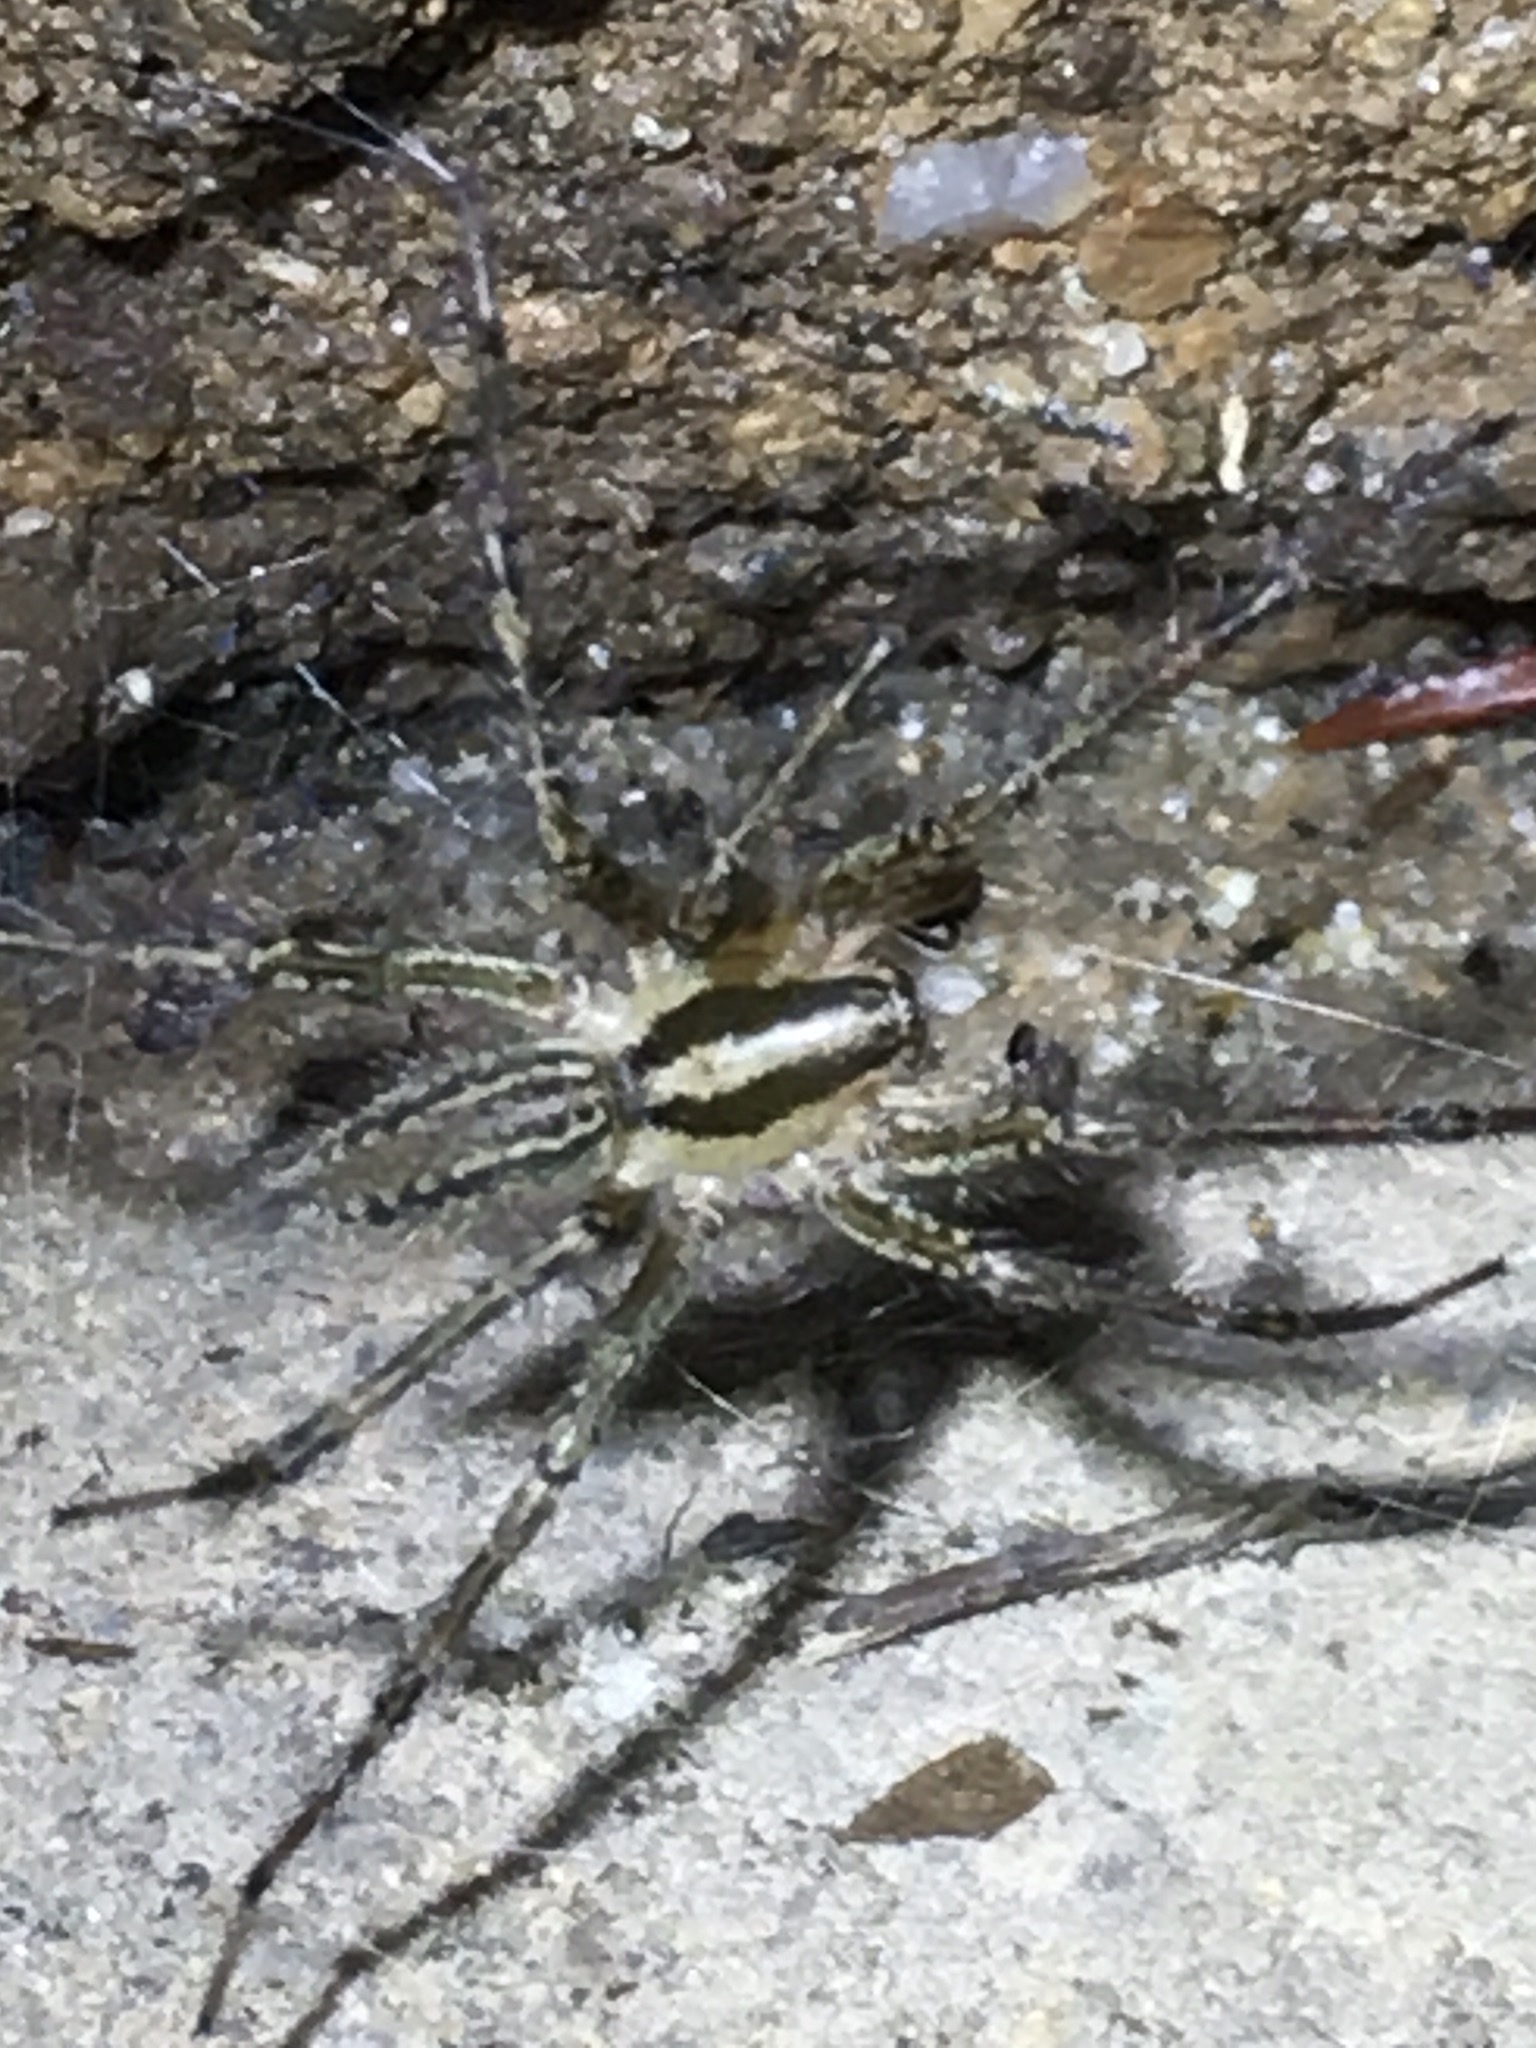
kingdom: Animalia
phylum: Arthropoda
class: Arachnida
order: Araneae
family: Agelenidae
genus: Agelenopsis
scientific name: Agelenopsis potteri
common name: Potter's grass spider
